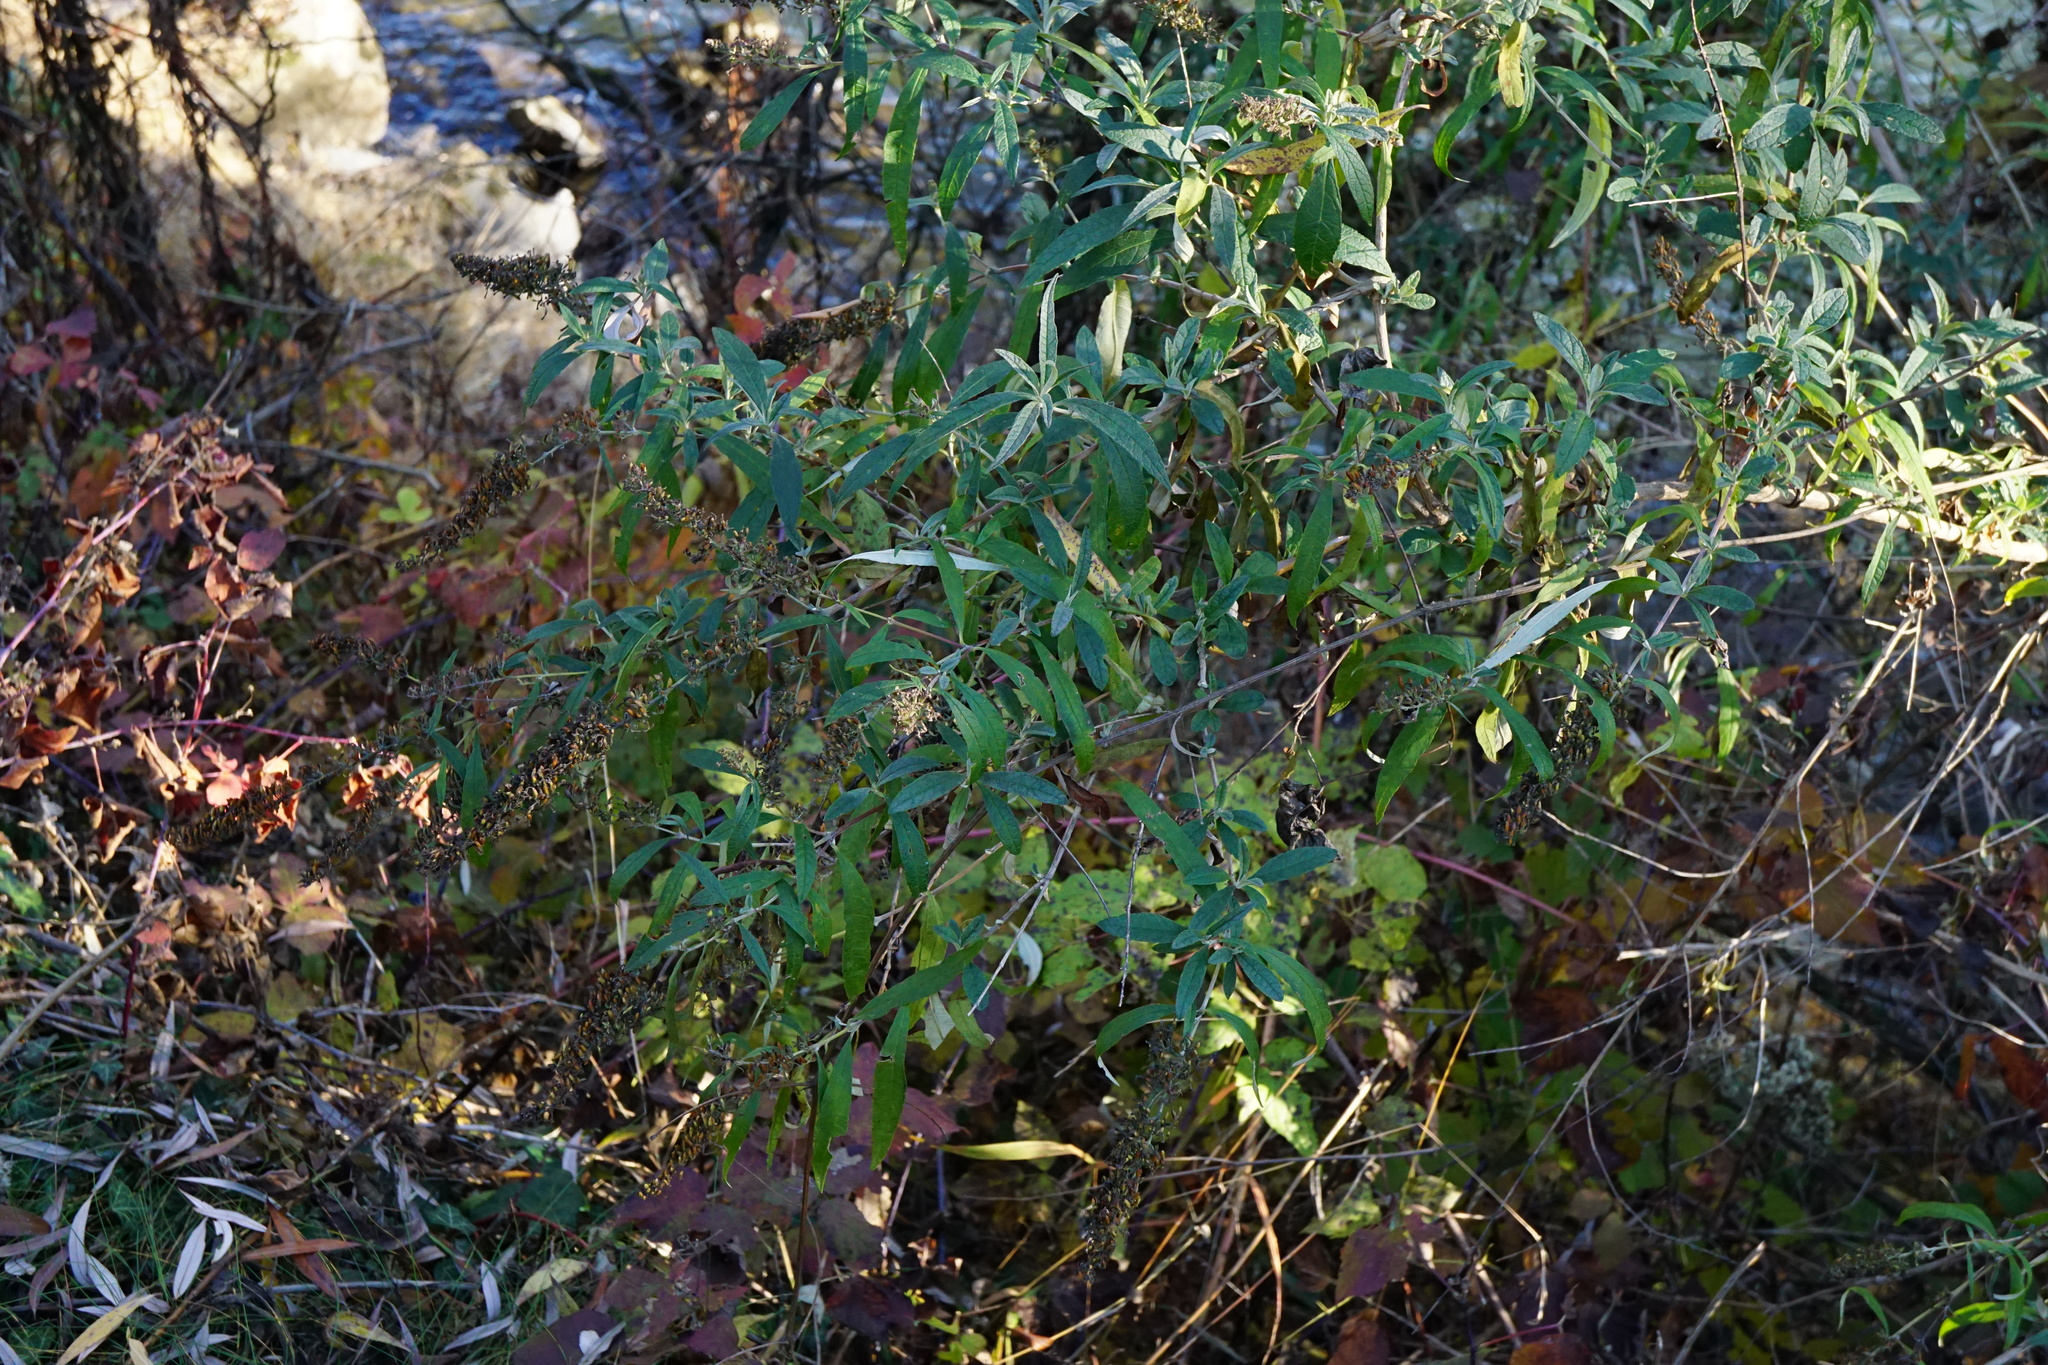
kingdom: Plantae
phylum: Tracheophyta
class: Magnoliopsida
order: Lamiales
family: Scrophulariaceae
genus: Buddleja
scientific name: Buddleja davidii
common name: Butterfly-bush
